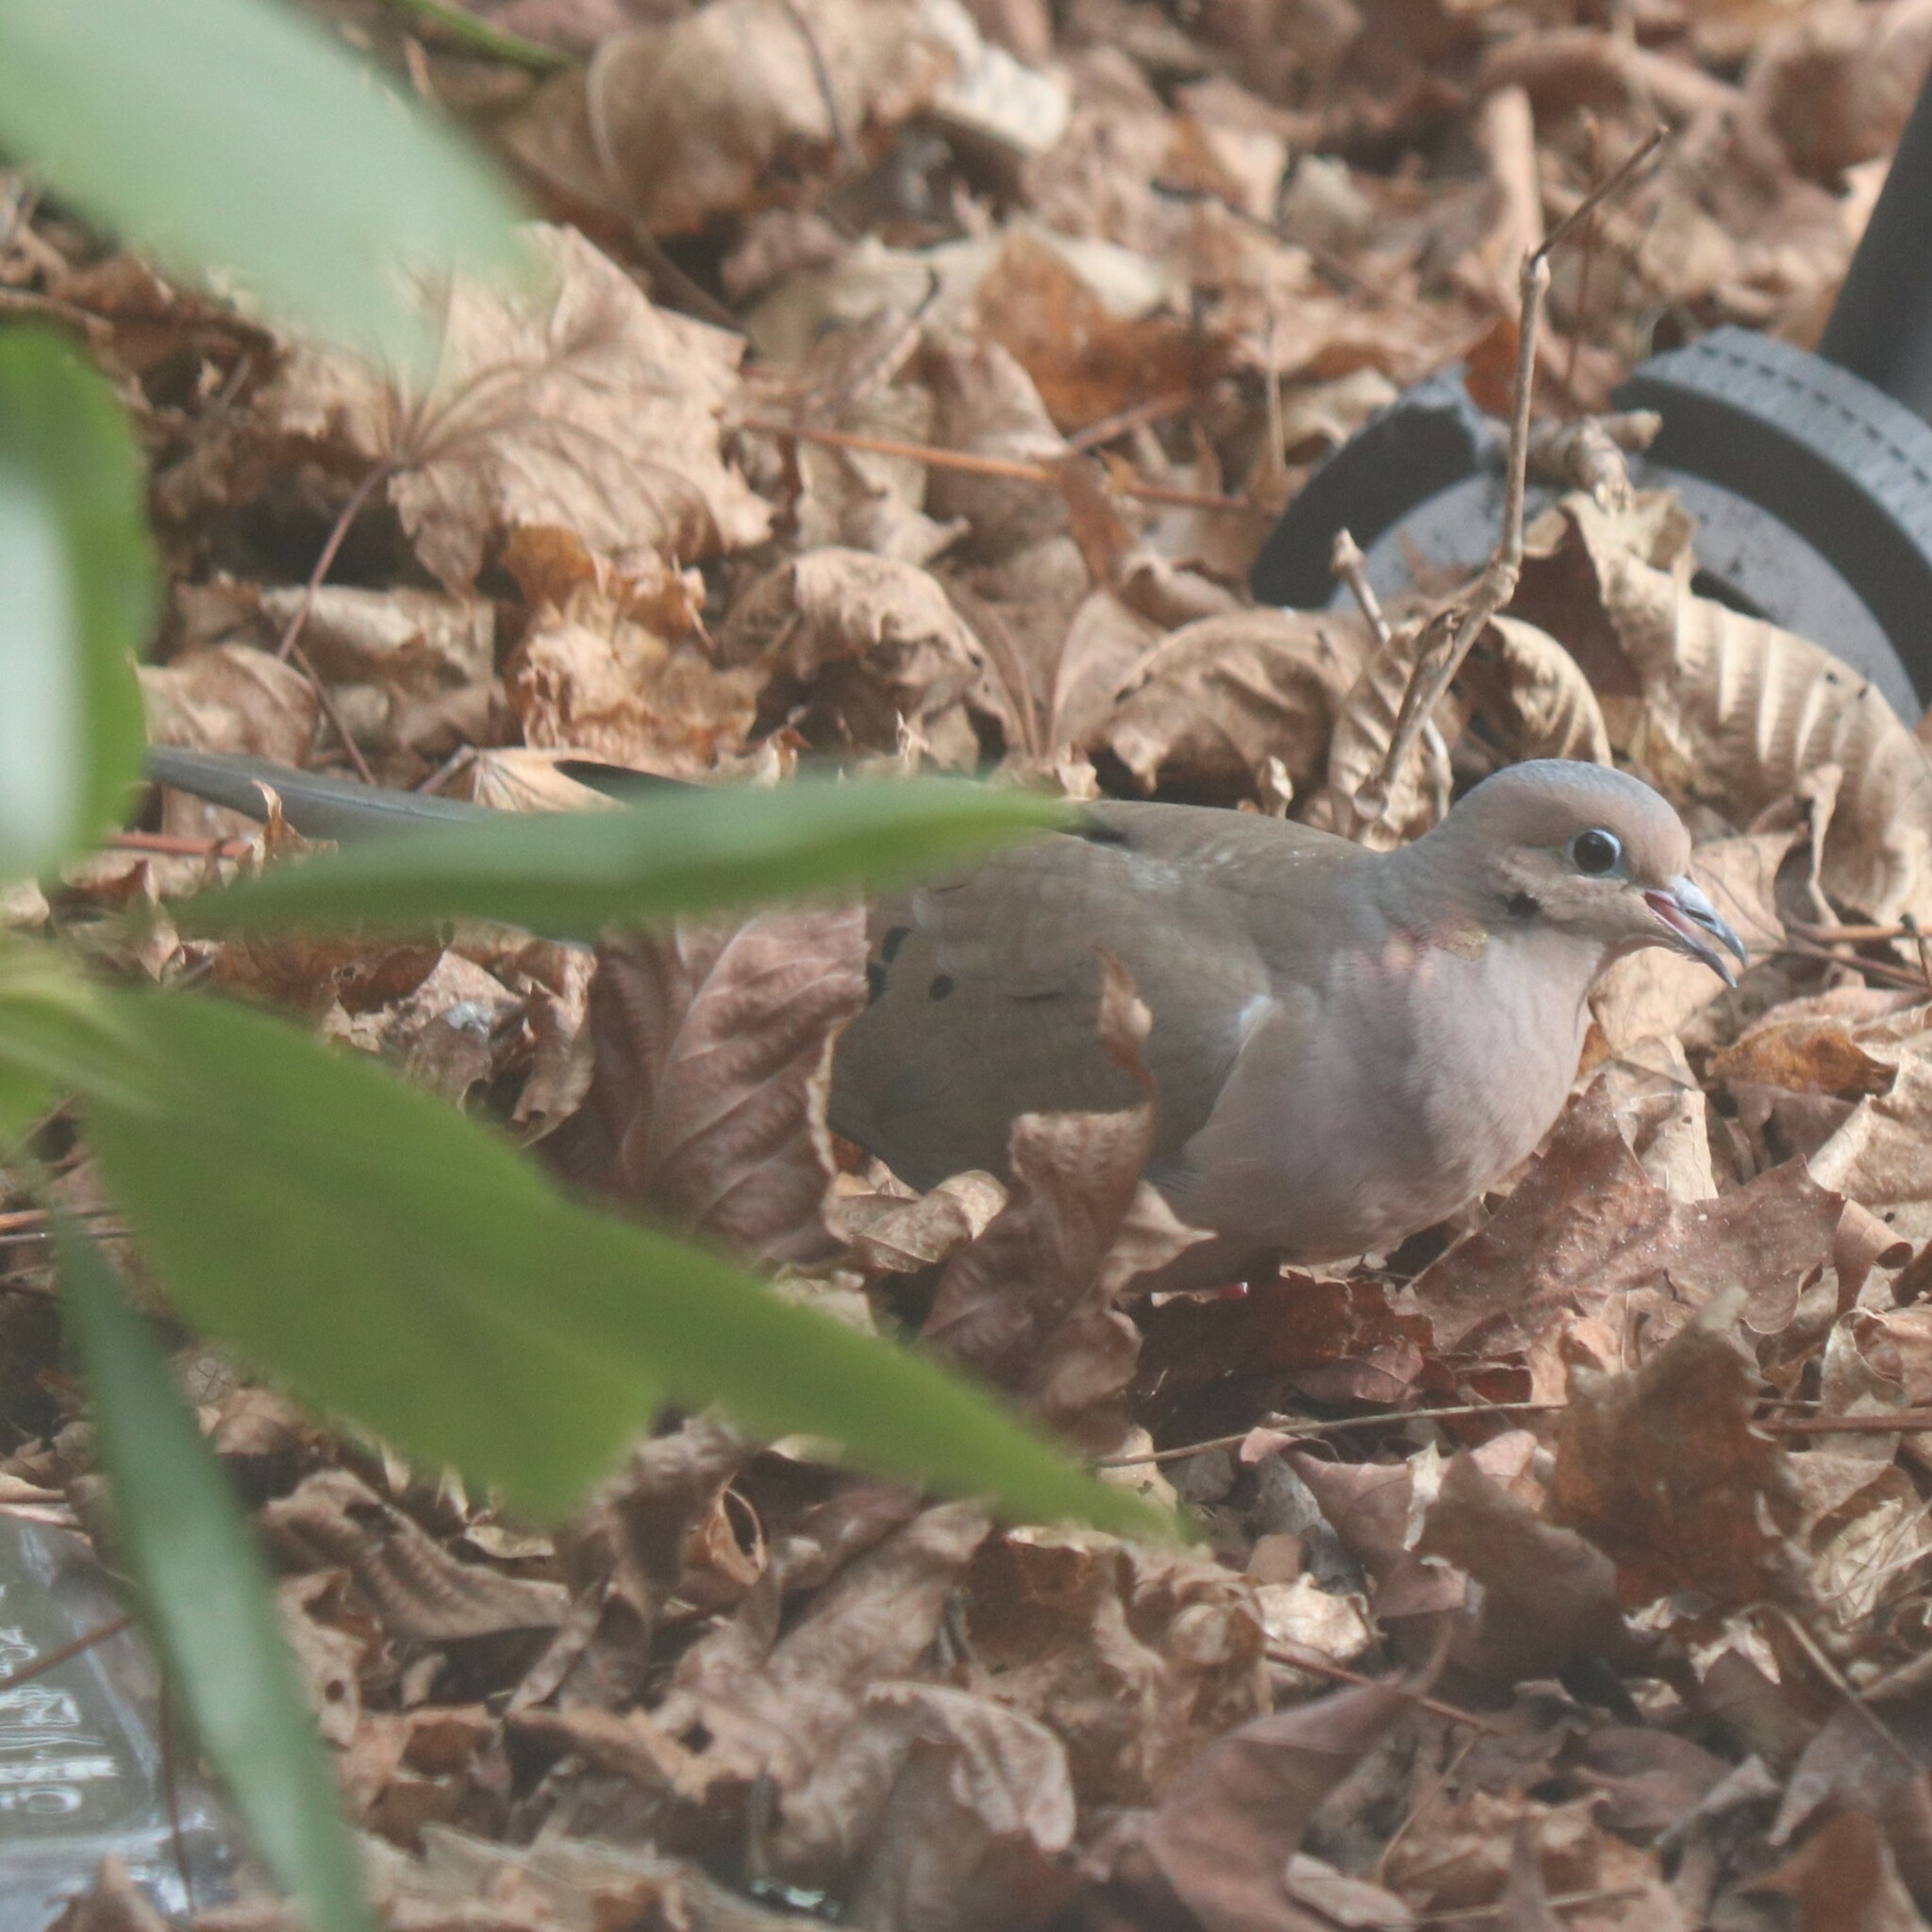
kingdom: Animalia
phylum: Chordata
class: Aves
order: Columbiformes
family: Columbidae
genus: Zenaida
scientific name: Zenaida macroura
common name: Mourning dove
